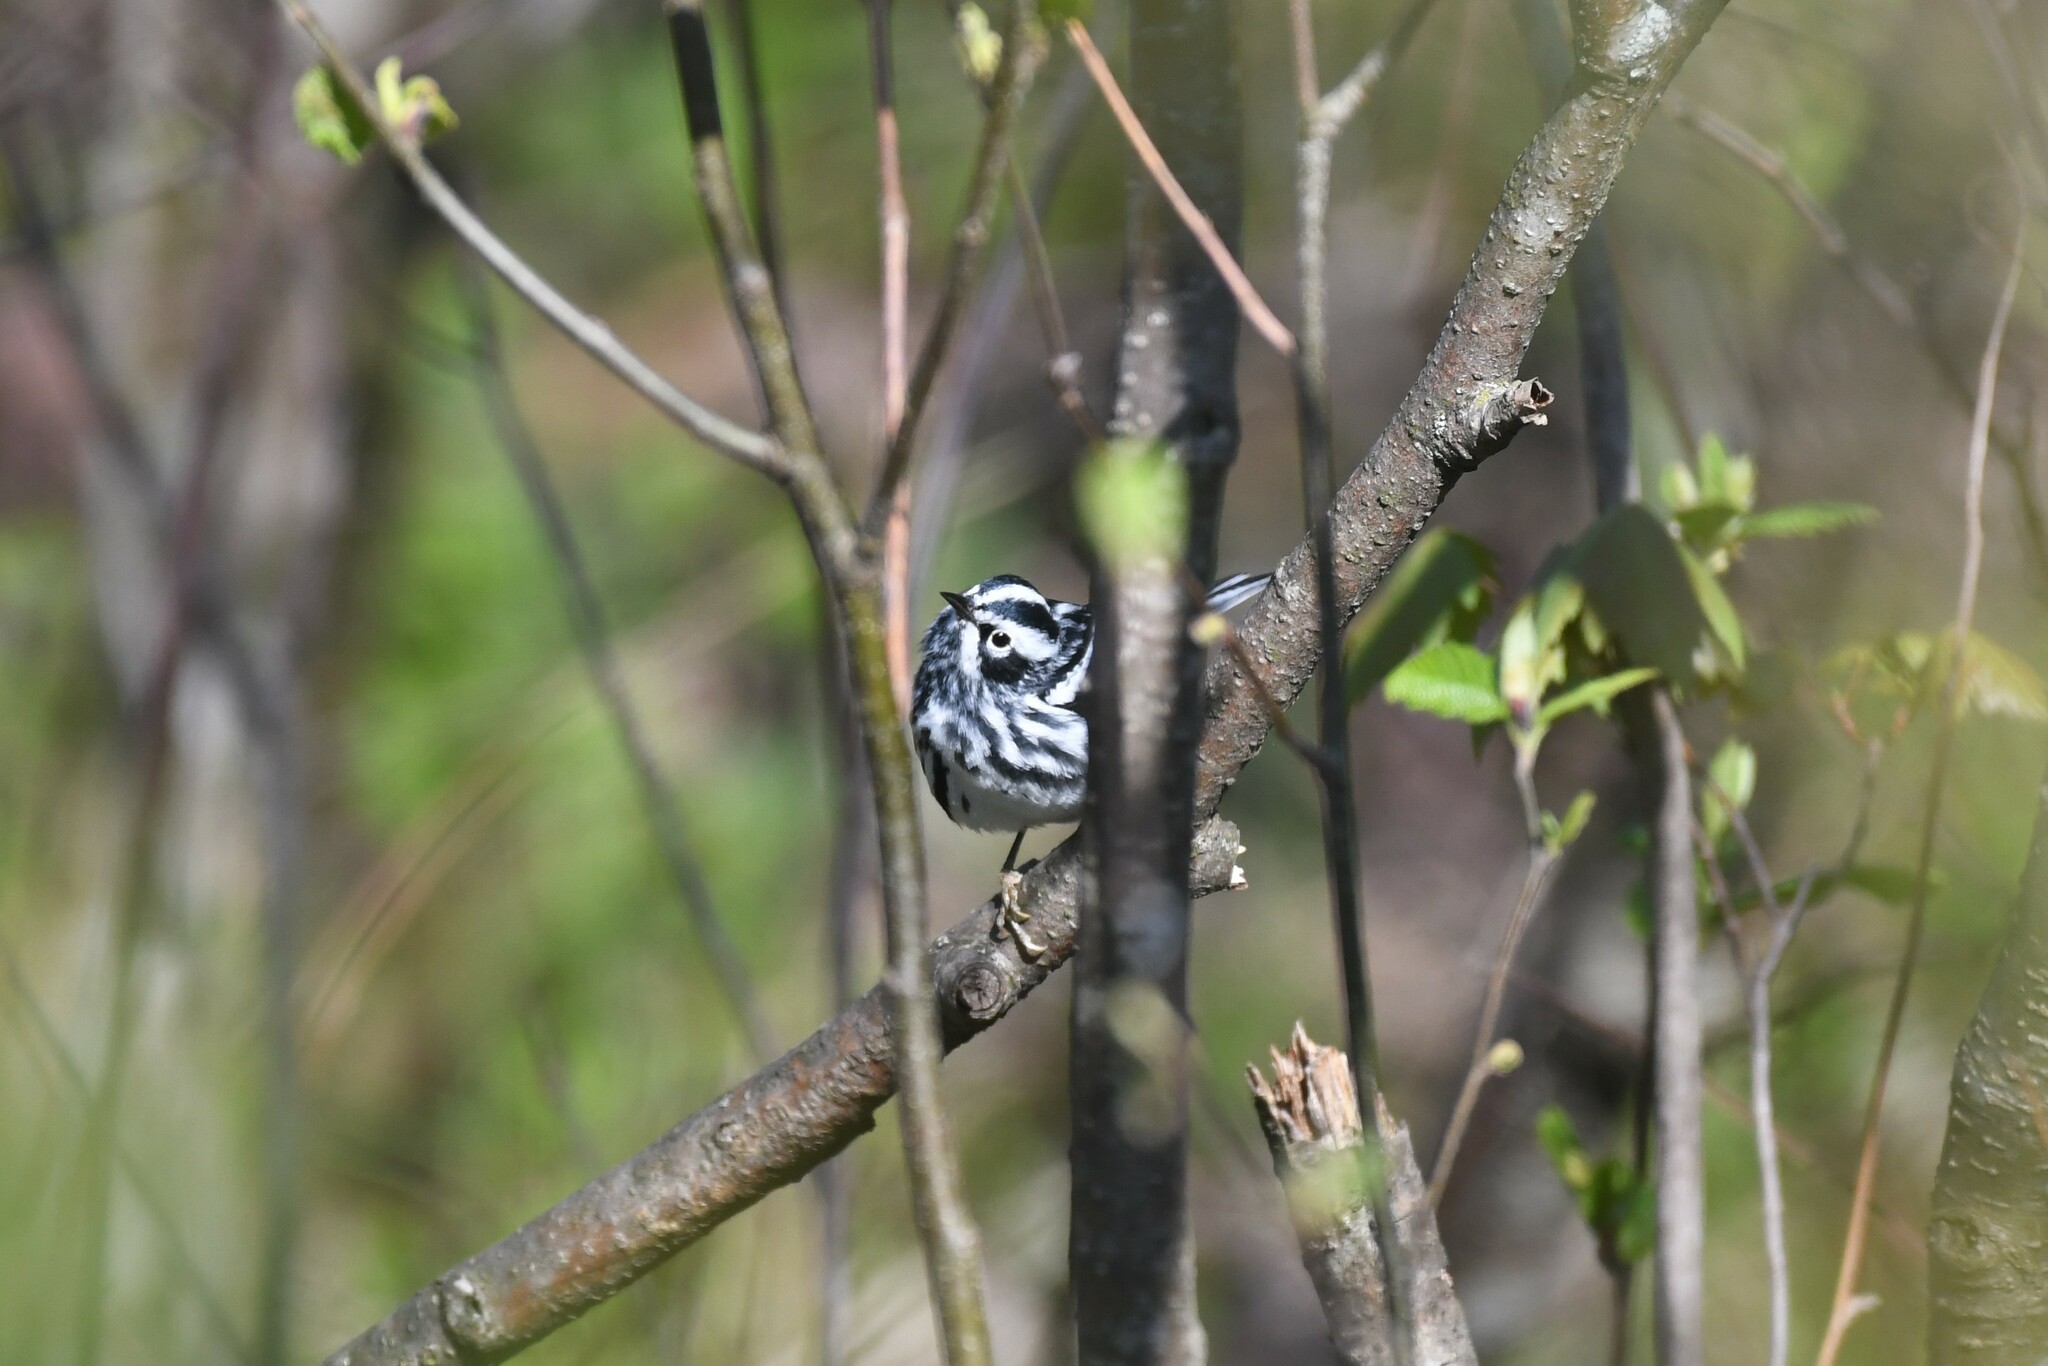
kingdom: Animalia
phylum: Chordata
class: Aves
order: Passeriformes
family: Parulidae
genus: Mniotilta
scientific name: Mniotilta varia
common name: Black-and-white warbler
